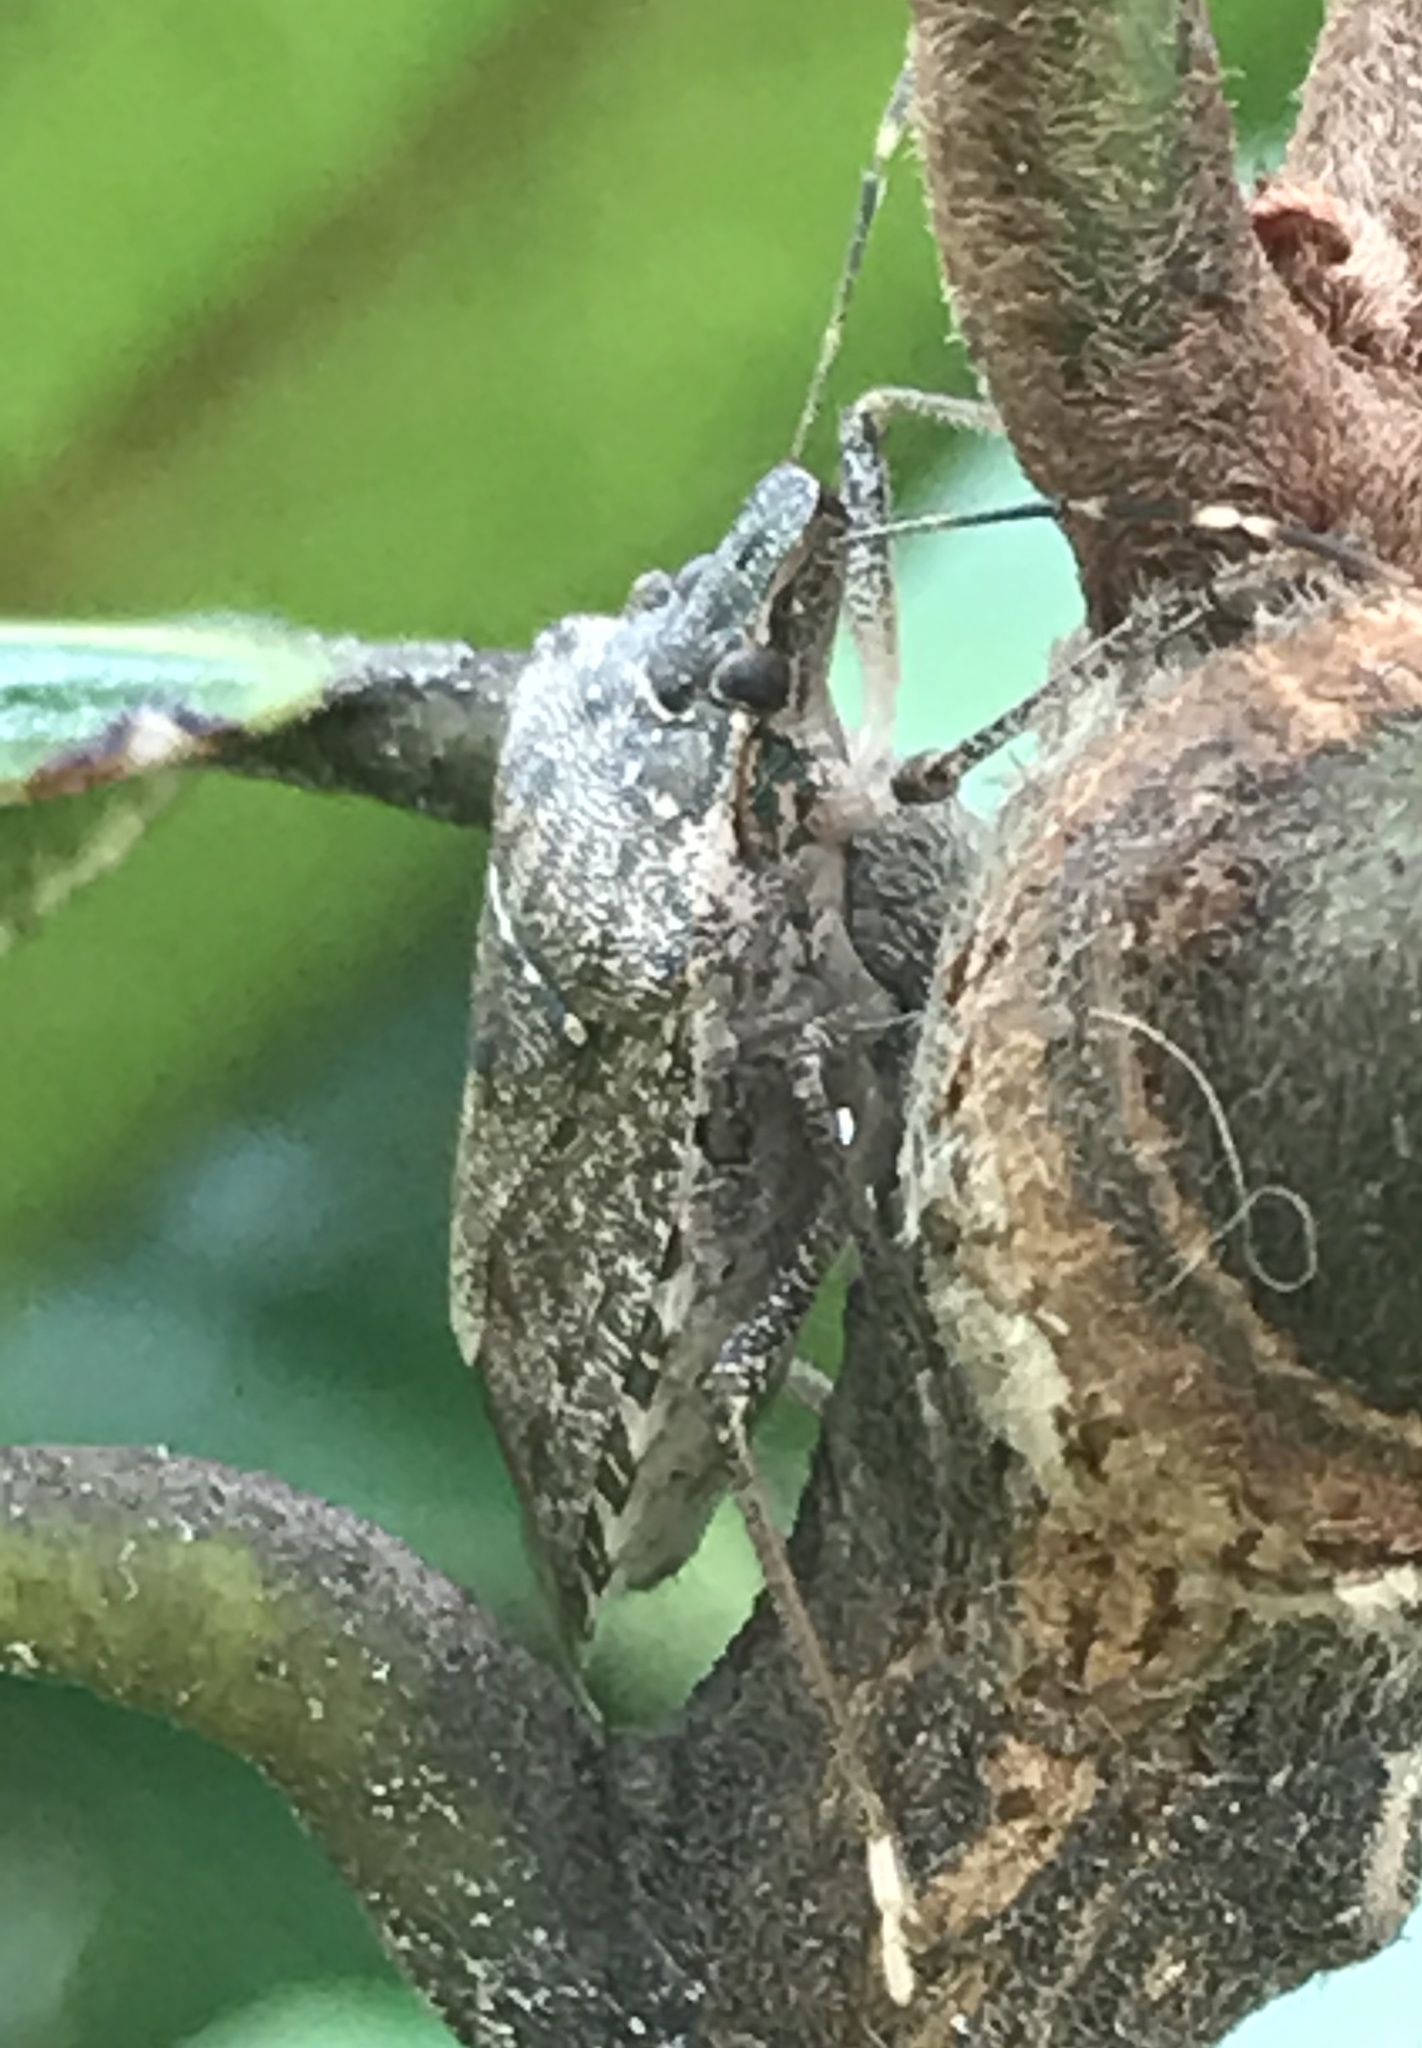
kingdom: Animalia
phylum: Arthropoda
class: Insecta
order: Hemiptera
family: Pentatomidae
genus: Halyomorpha
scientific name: Halyomorpha halys
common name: Brown marmorated stink bug
